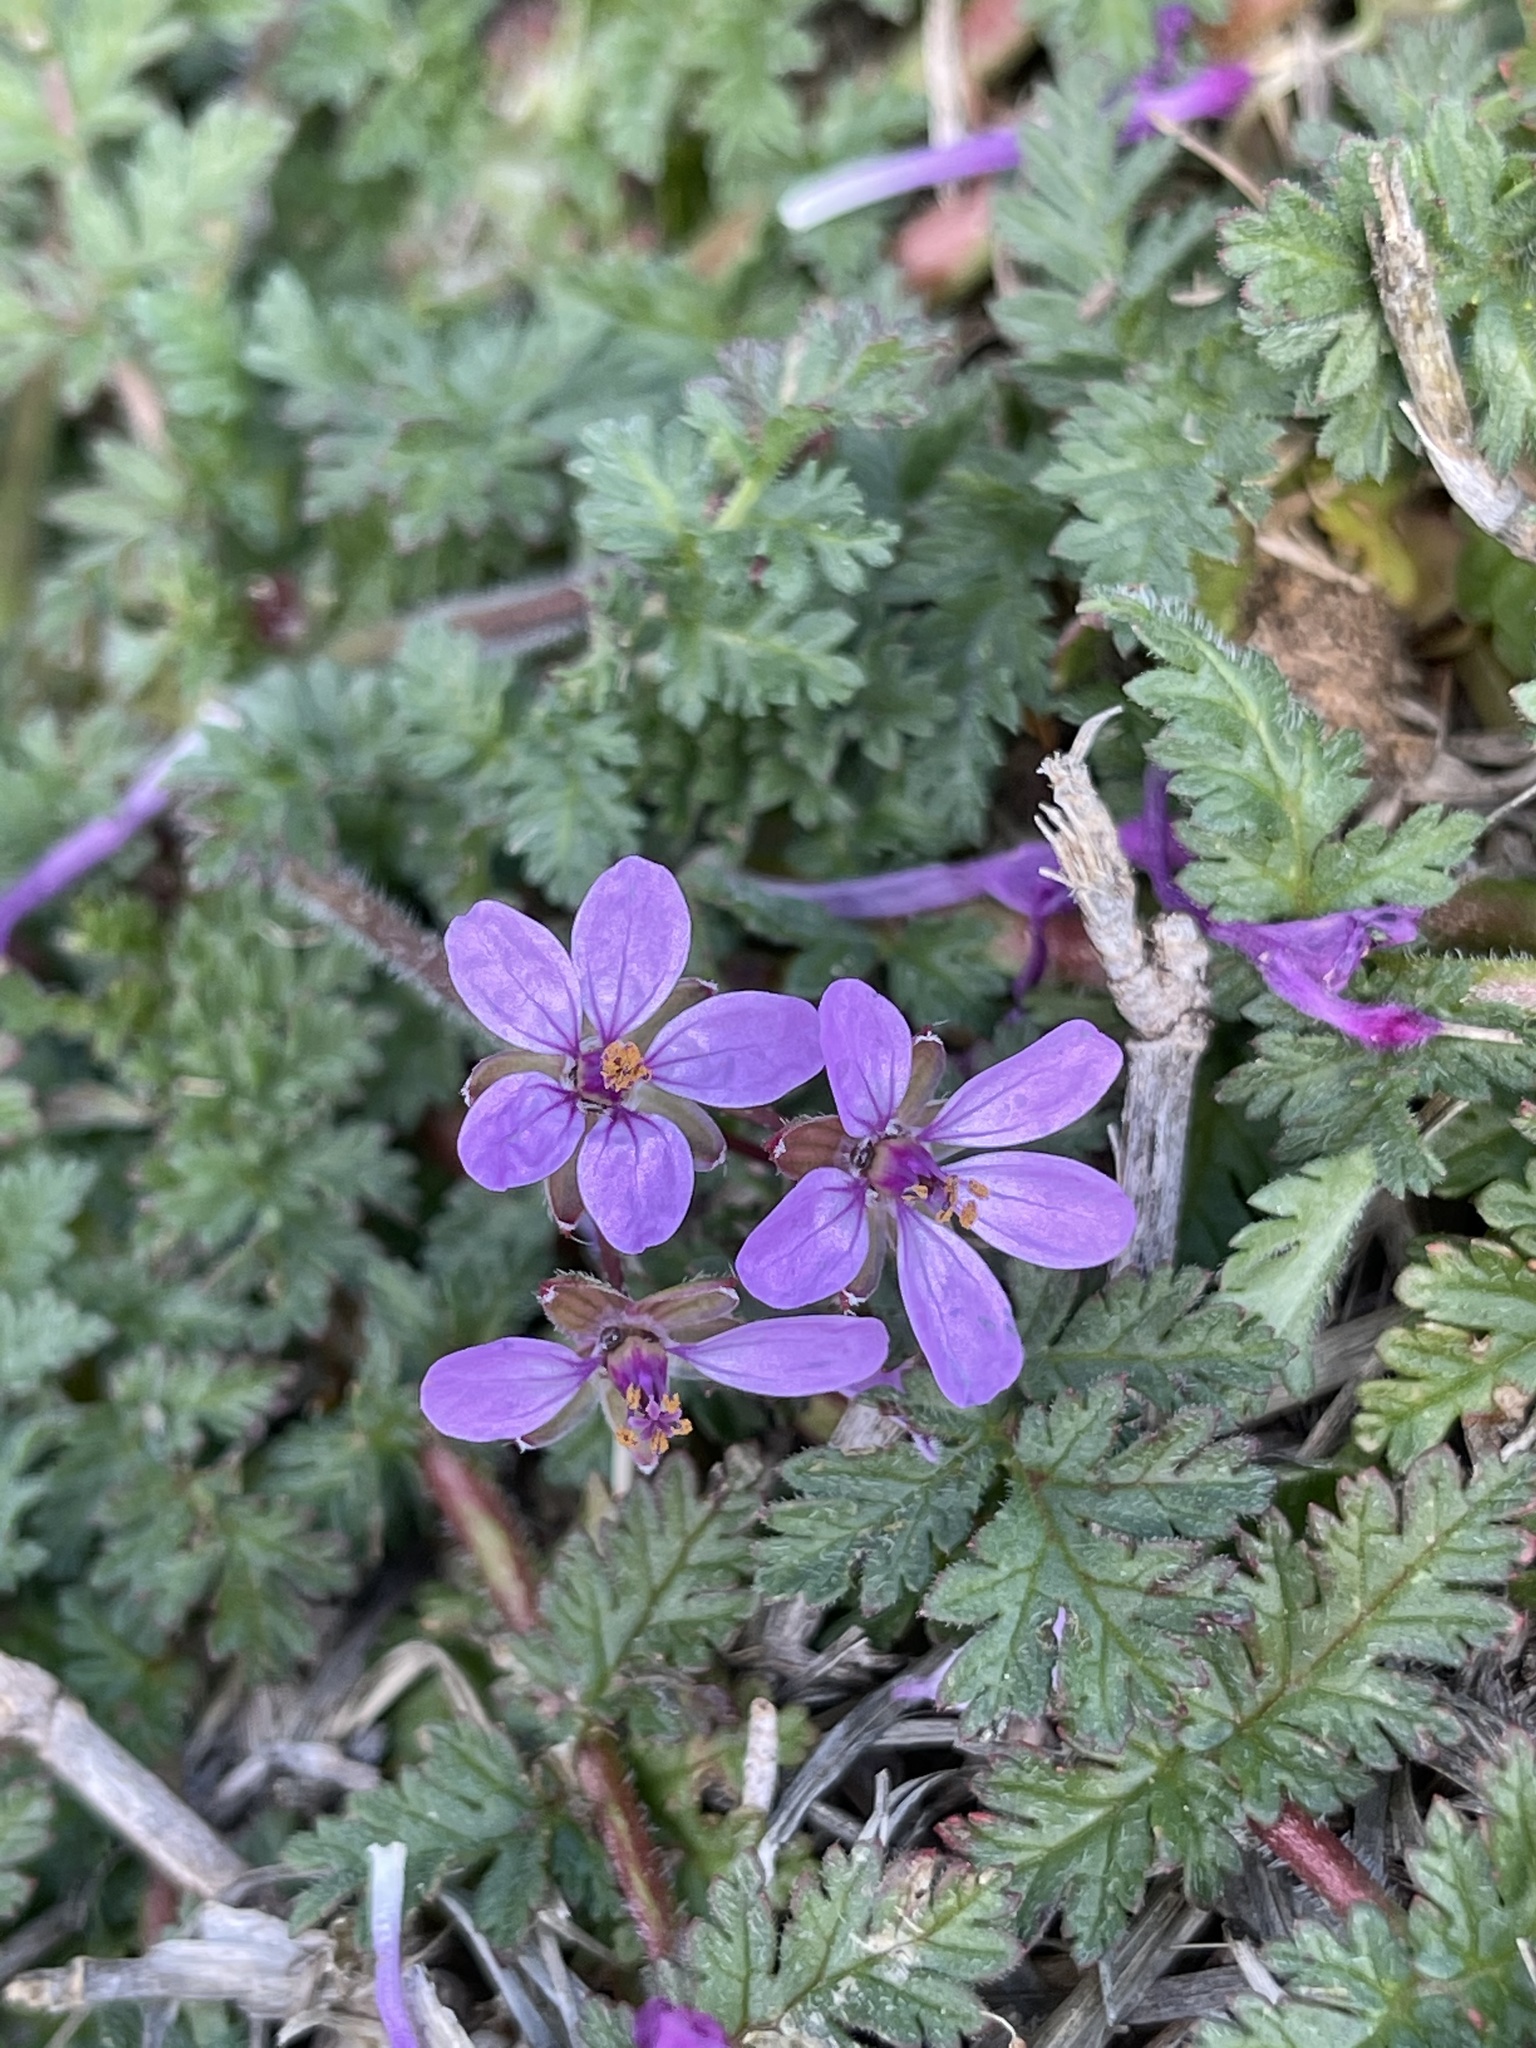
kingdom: Plantae
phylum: Tracheophyta
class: Magnoliopsida
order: Geraniales
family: Geraniaceae
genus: Erodium
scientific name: Erodium cicutarium
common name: Common stork's-bill
